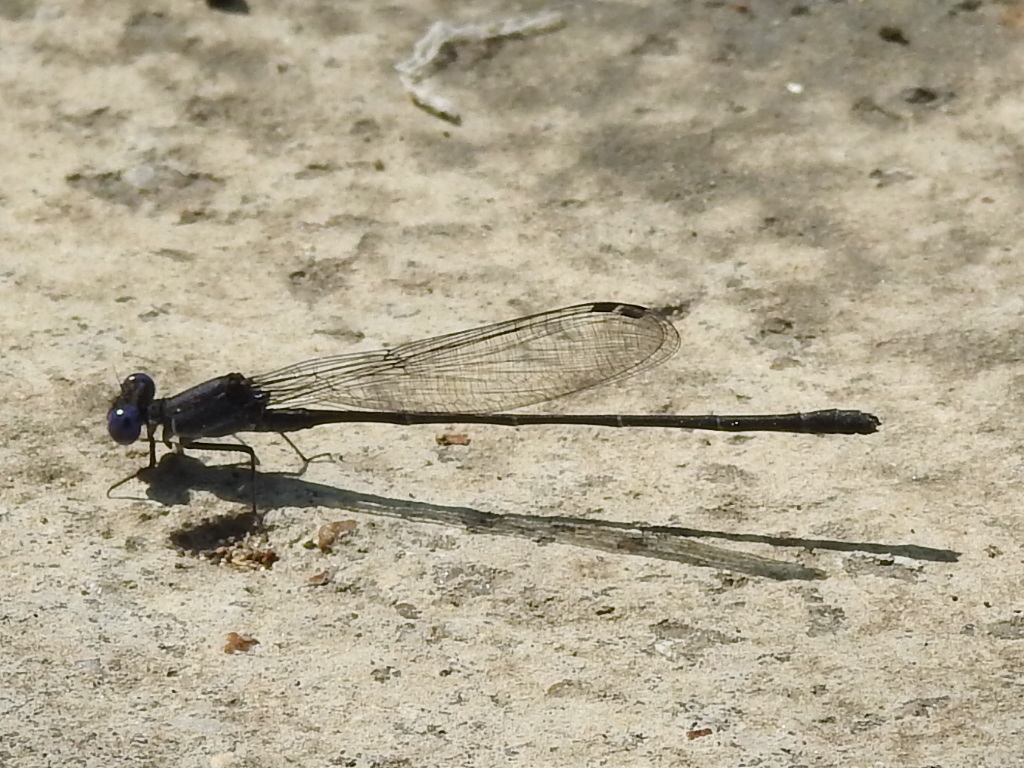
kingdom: Animalia
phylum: Arthropoda
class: Insecta
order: Odonata
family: Coenagrionidae
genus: Argia
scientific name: Argia translata
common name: Dusky dancer
